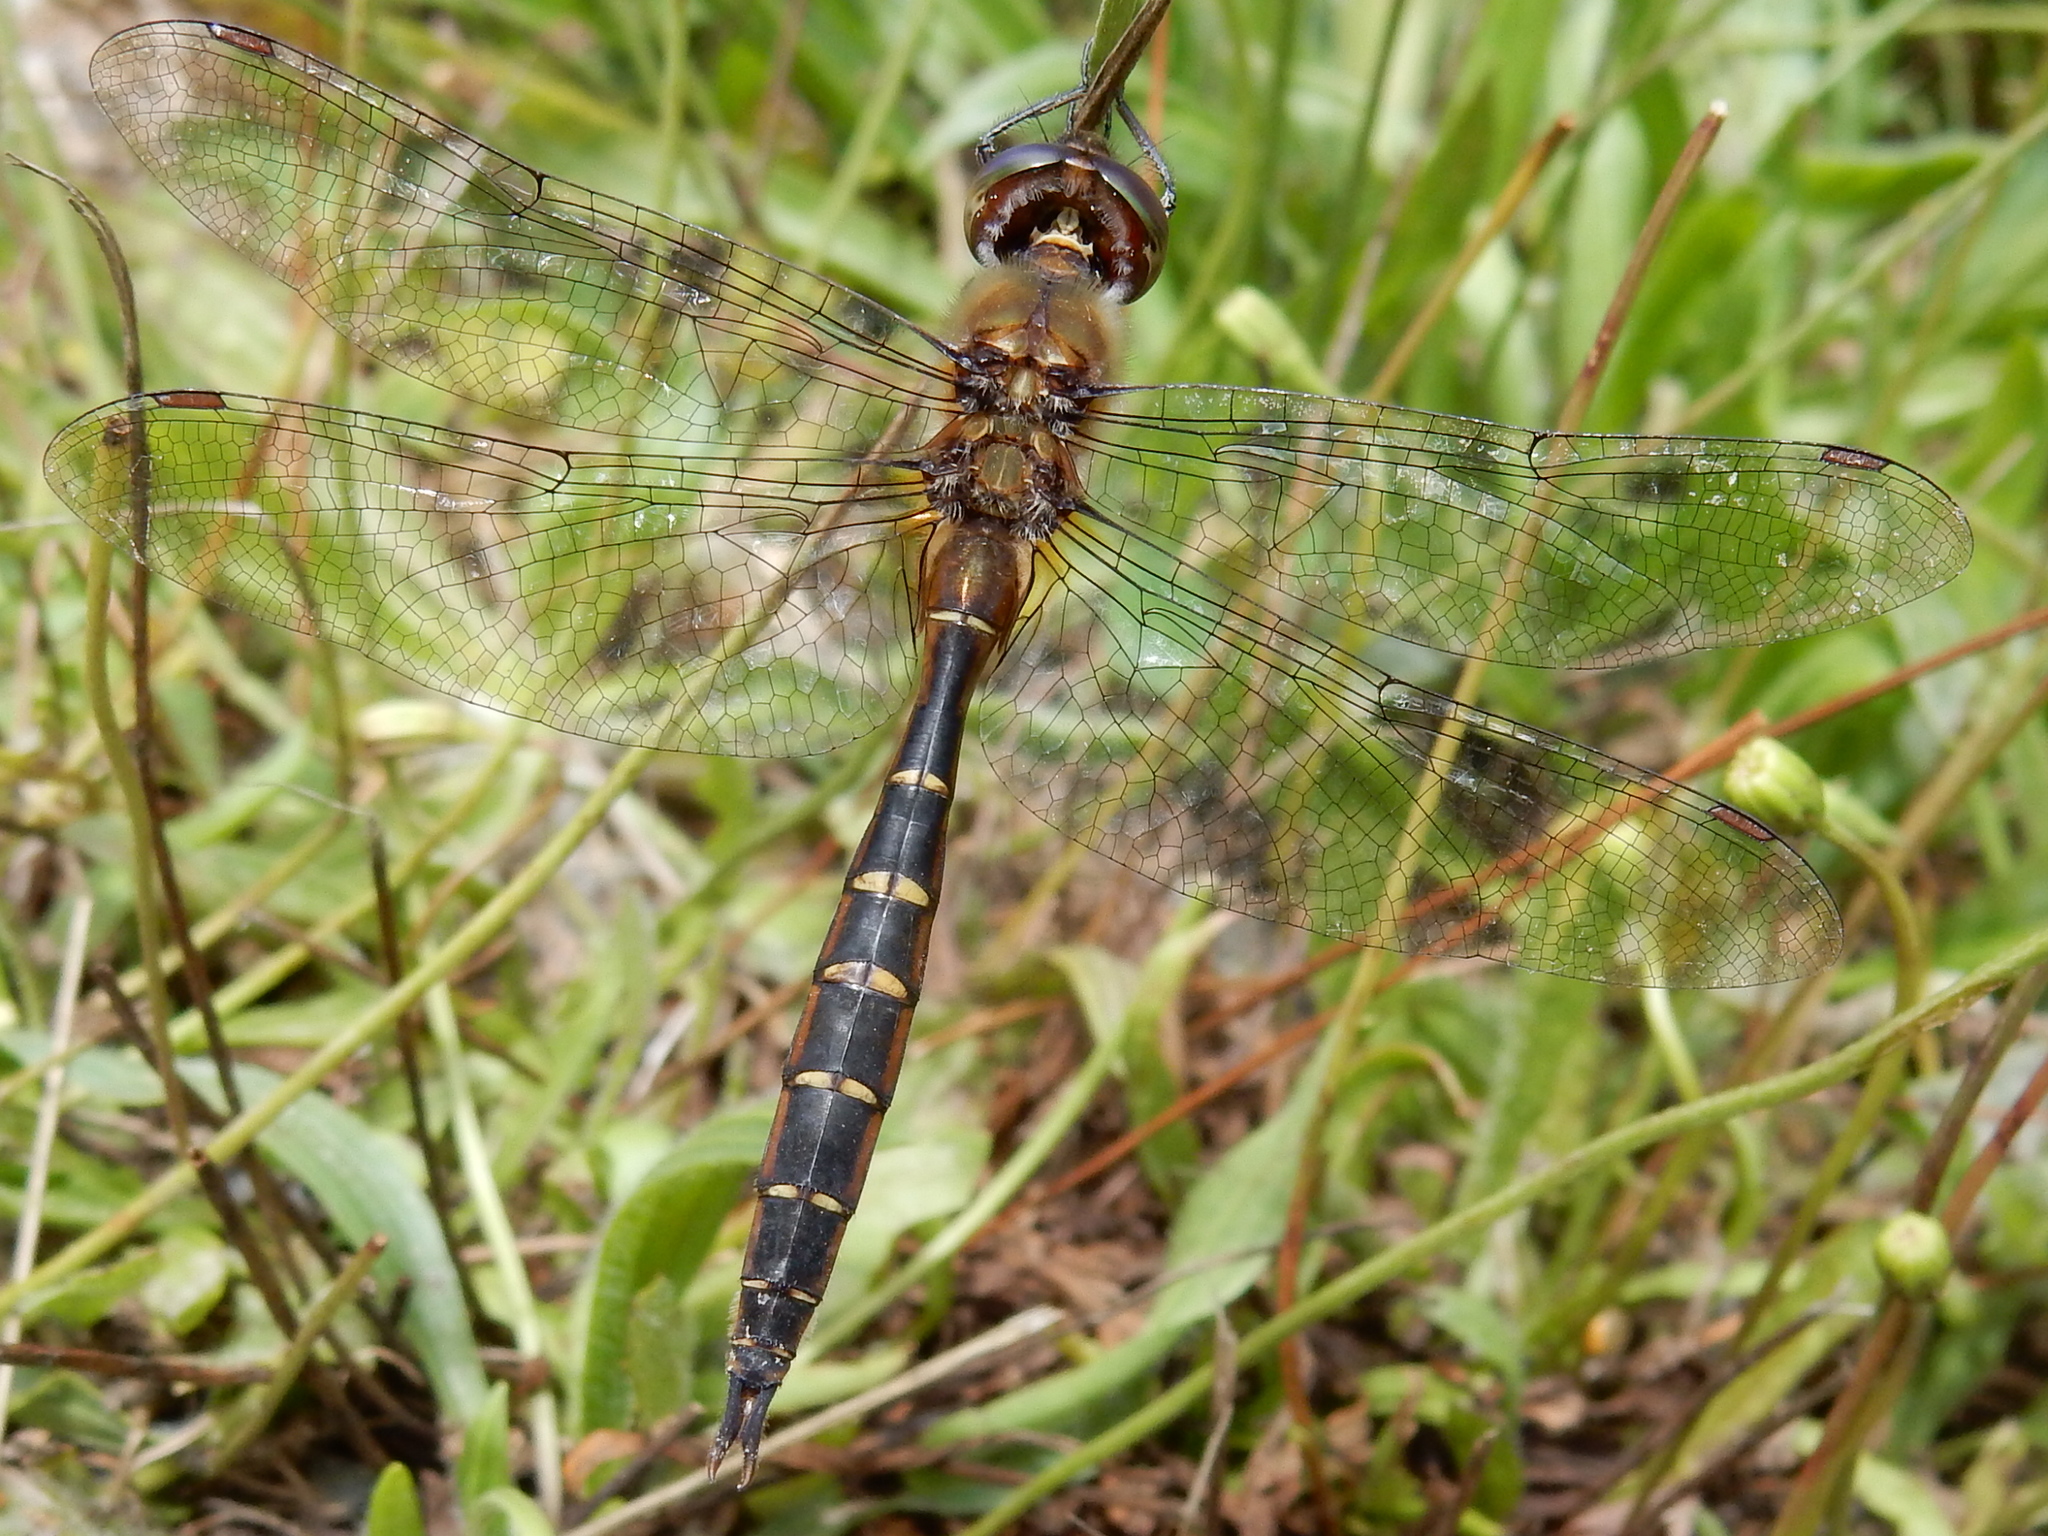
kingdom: Animalia
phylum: Arthropoda
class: Insecta
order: Odonata
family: Corduliidae
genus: Procordulia
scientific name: Procordulia smithii
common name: Ranger dragonfly
